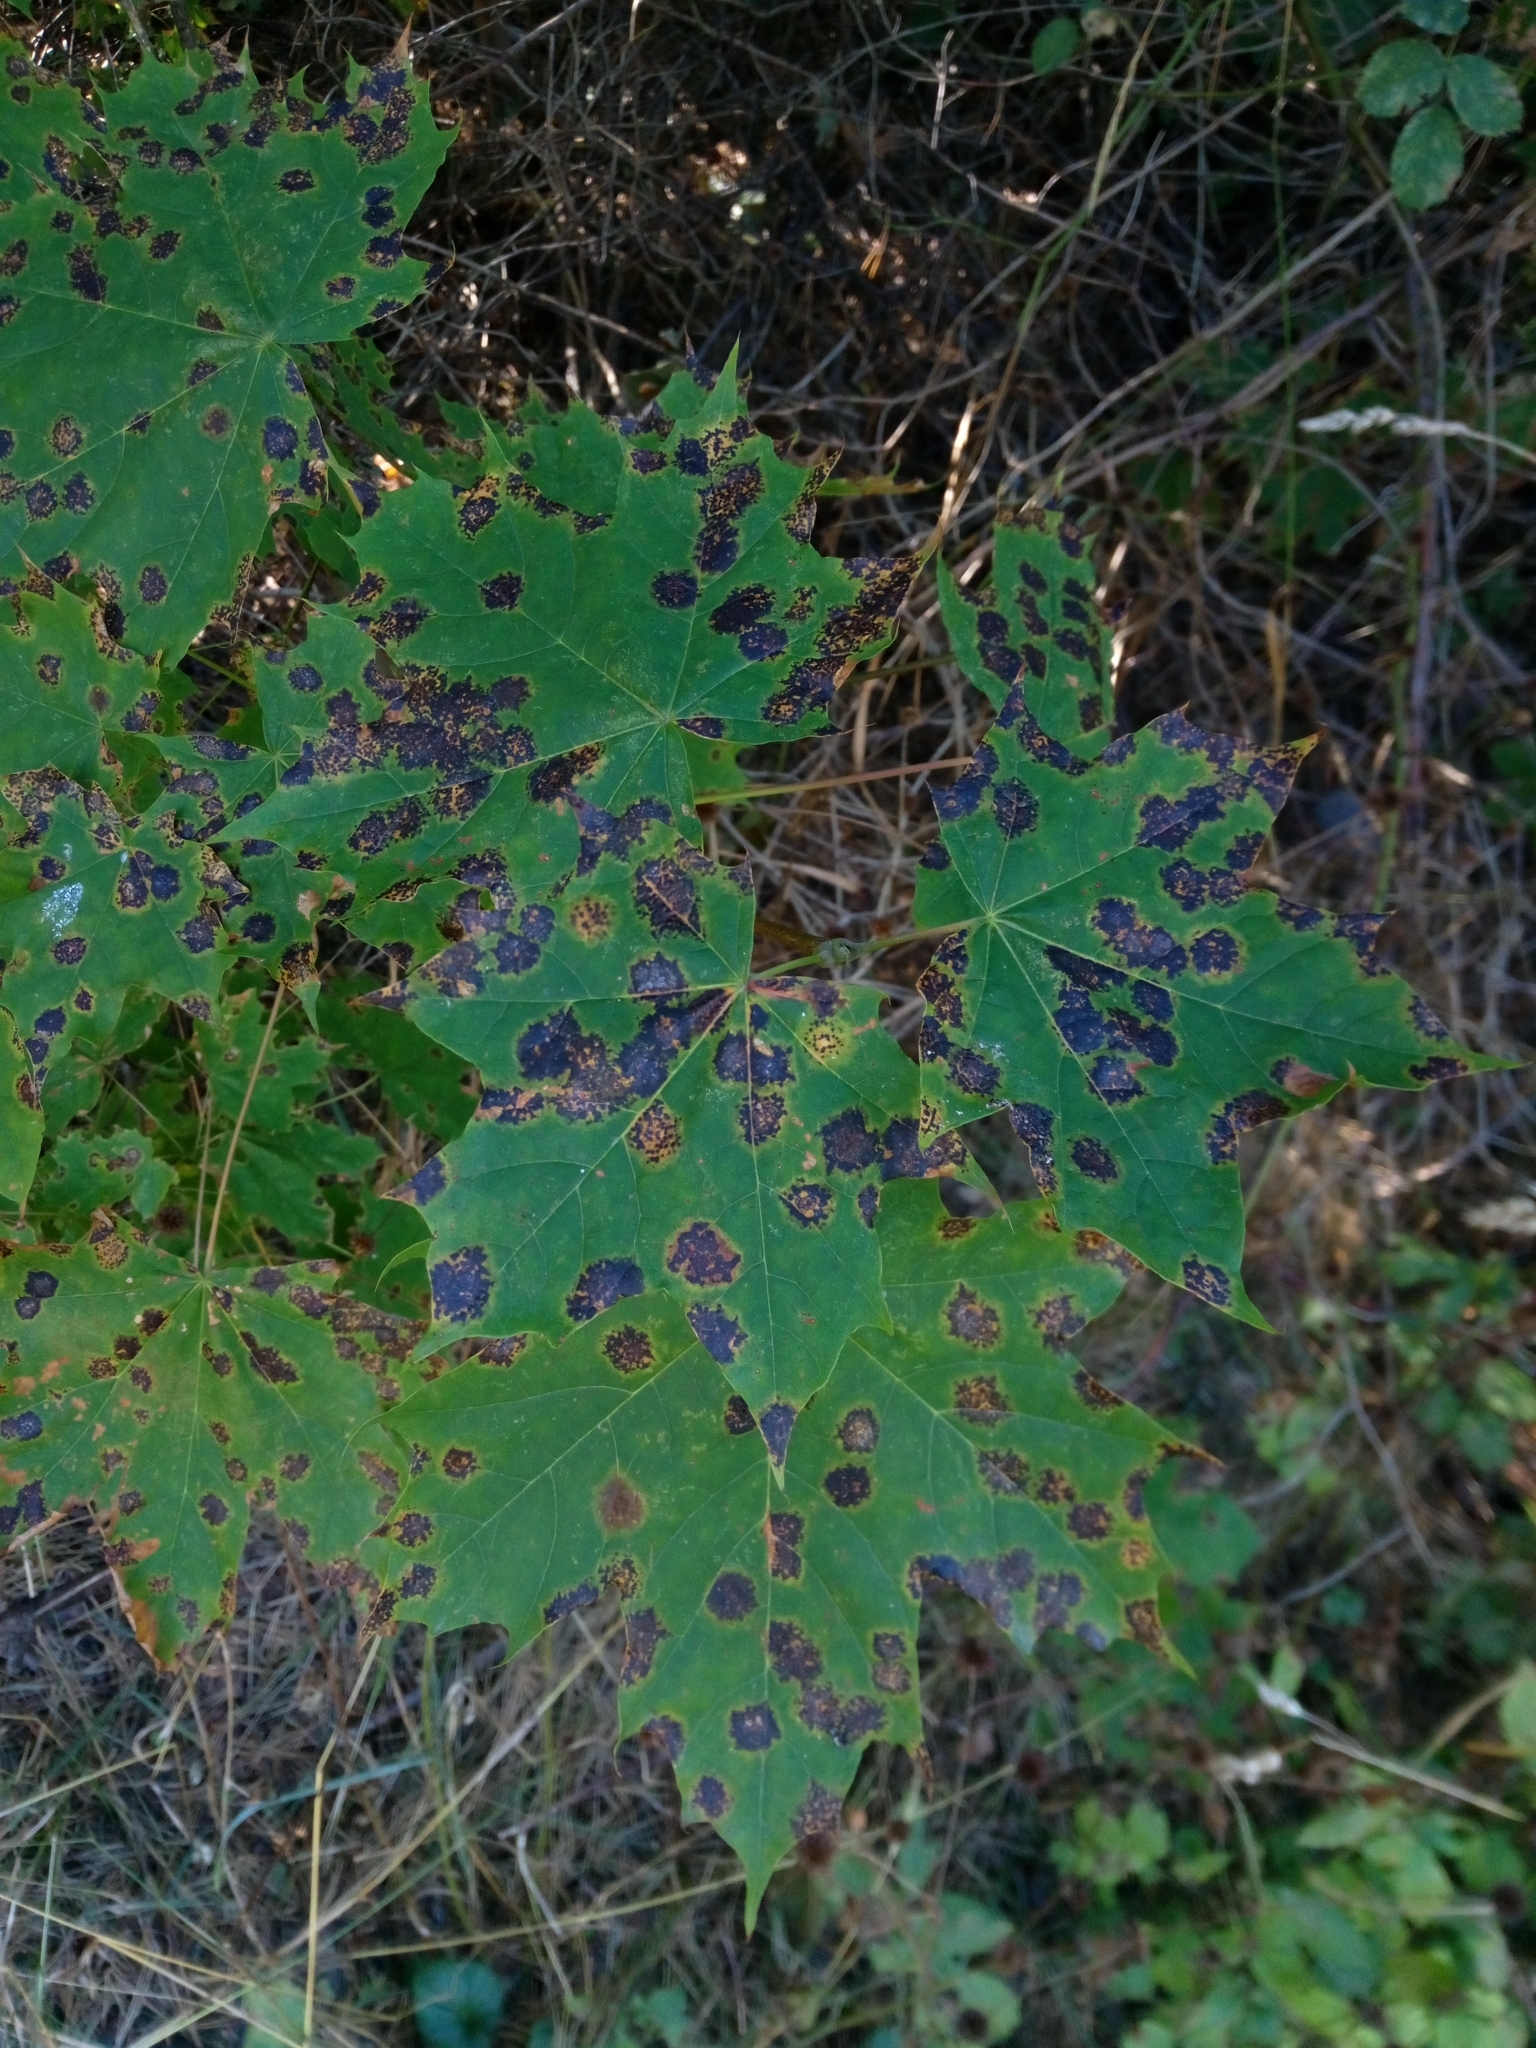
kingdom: Fungi
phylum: Ascomycota
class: Leotiomycetes
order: Rhytismatales
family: Rhytismataceae
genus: Rhytisma
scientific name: Rhytisma acerinum
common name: European tar spot
